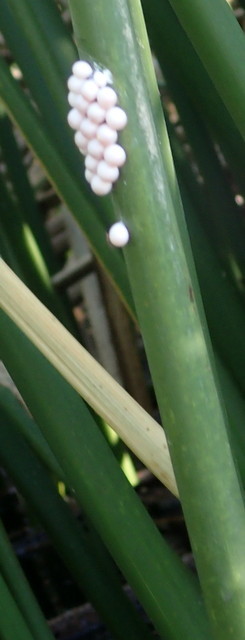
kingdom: Animalia
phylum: Mollusca
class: Gastropoda
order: Architaenioglossa
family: Ampullariidae
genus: Pomacea
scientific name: Pomacea paludosa
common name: Florida applesnail
